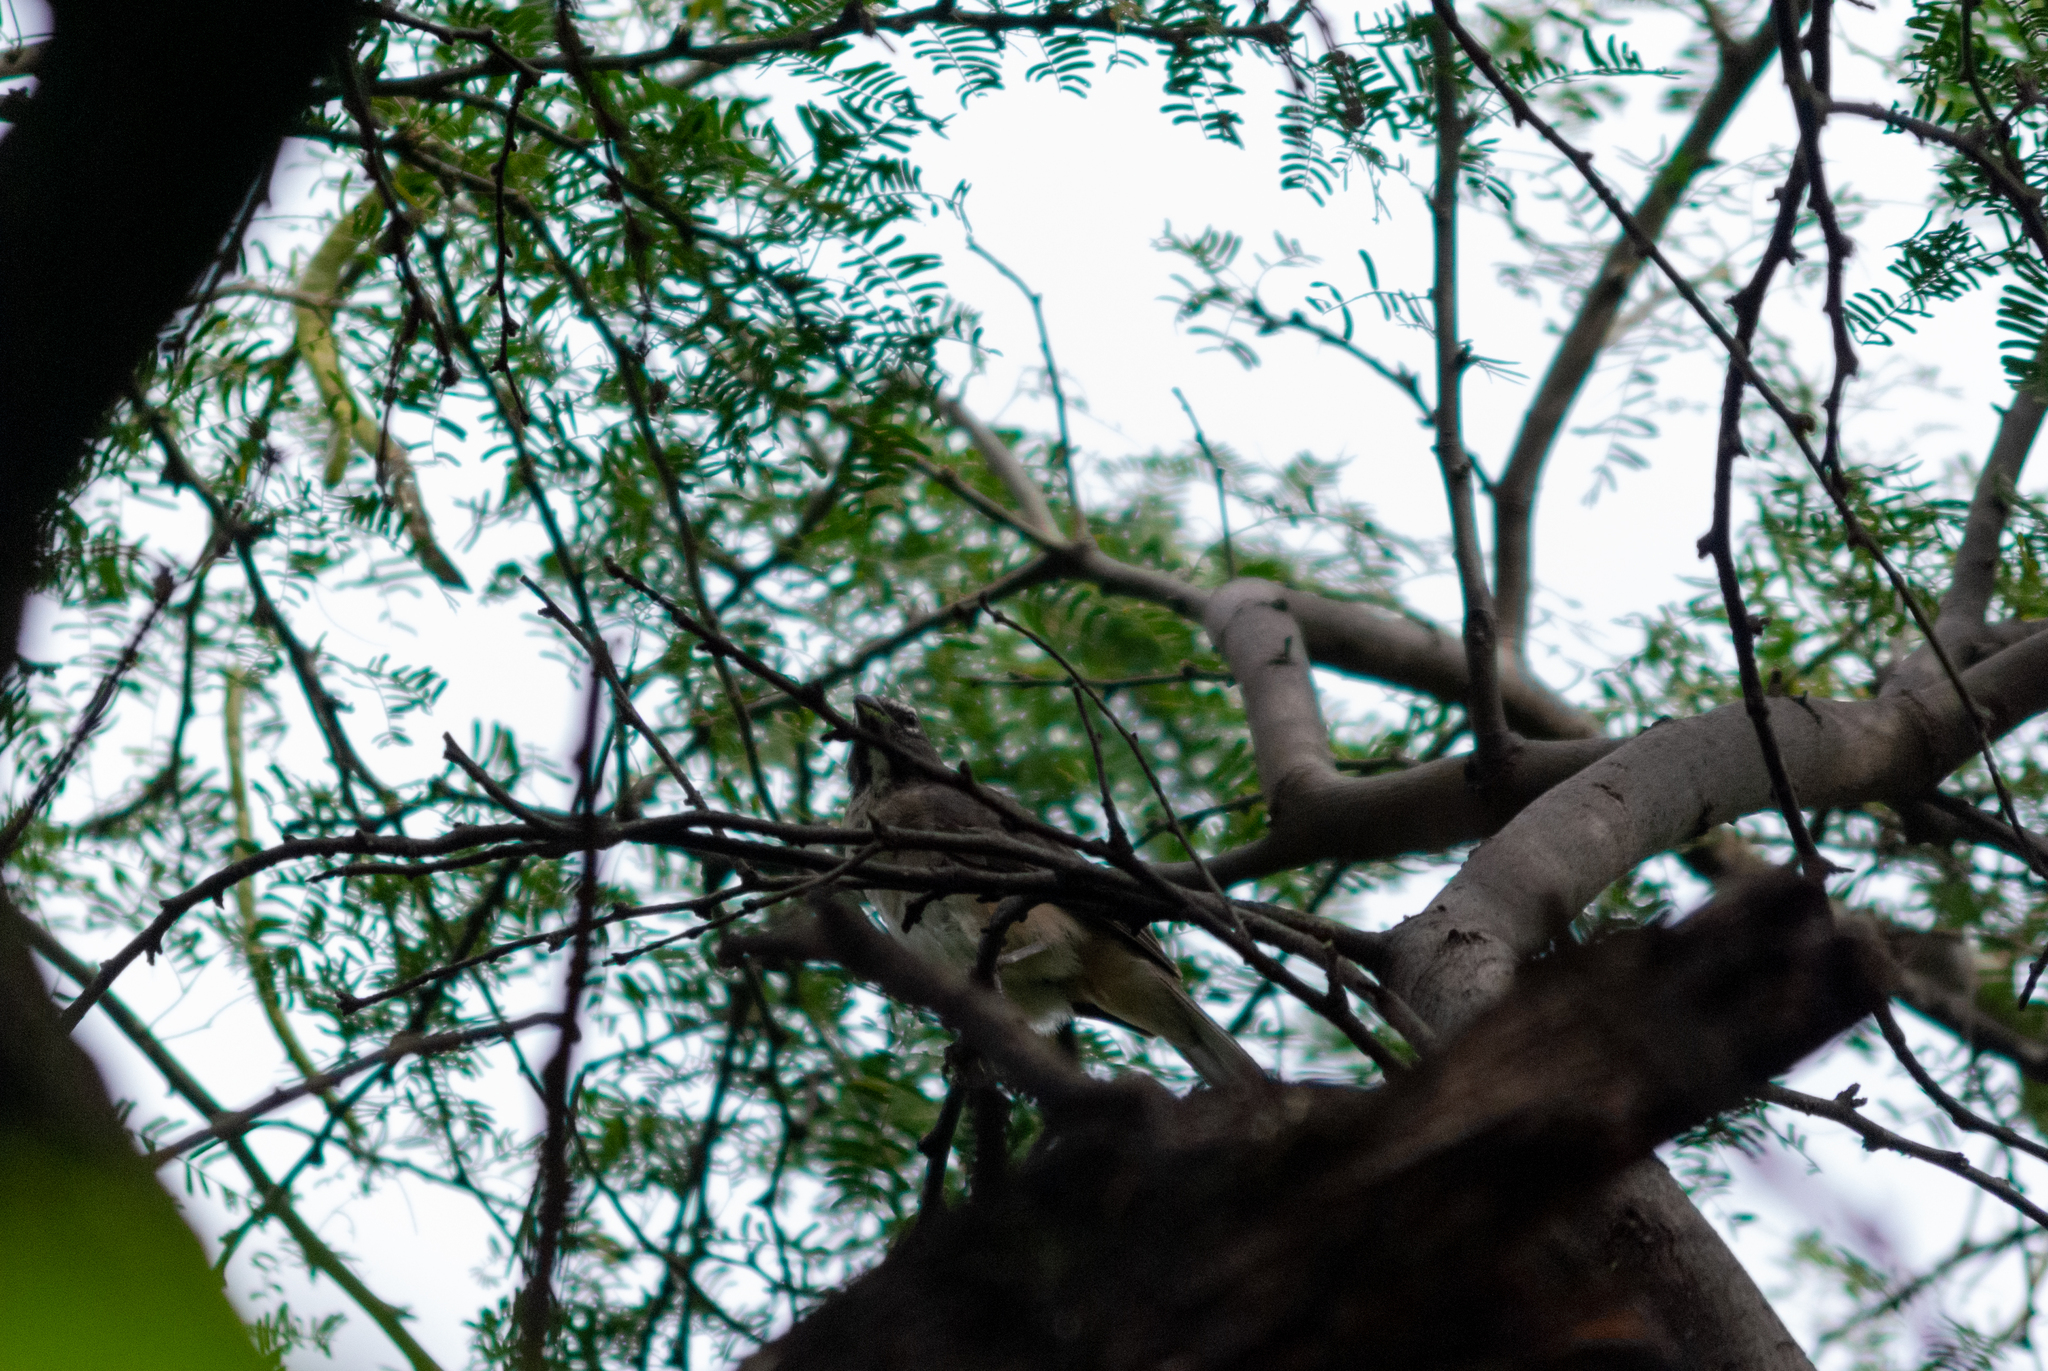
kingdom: Animalia
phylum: Chordata
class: Aves
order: Passeriformes
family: Thraupidae
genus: Saltator
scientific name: Saltator olivascens
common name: Caribbean grey saltator
